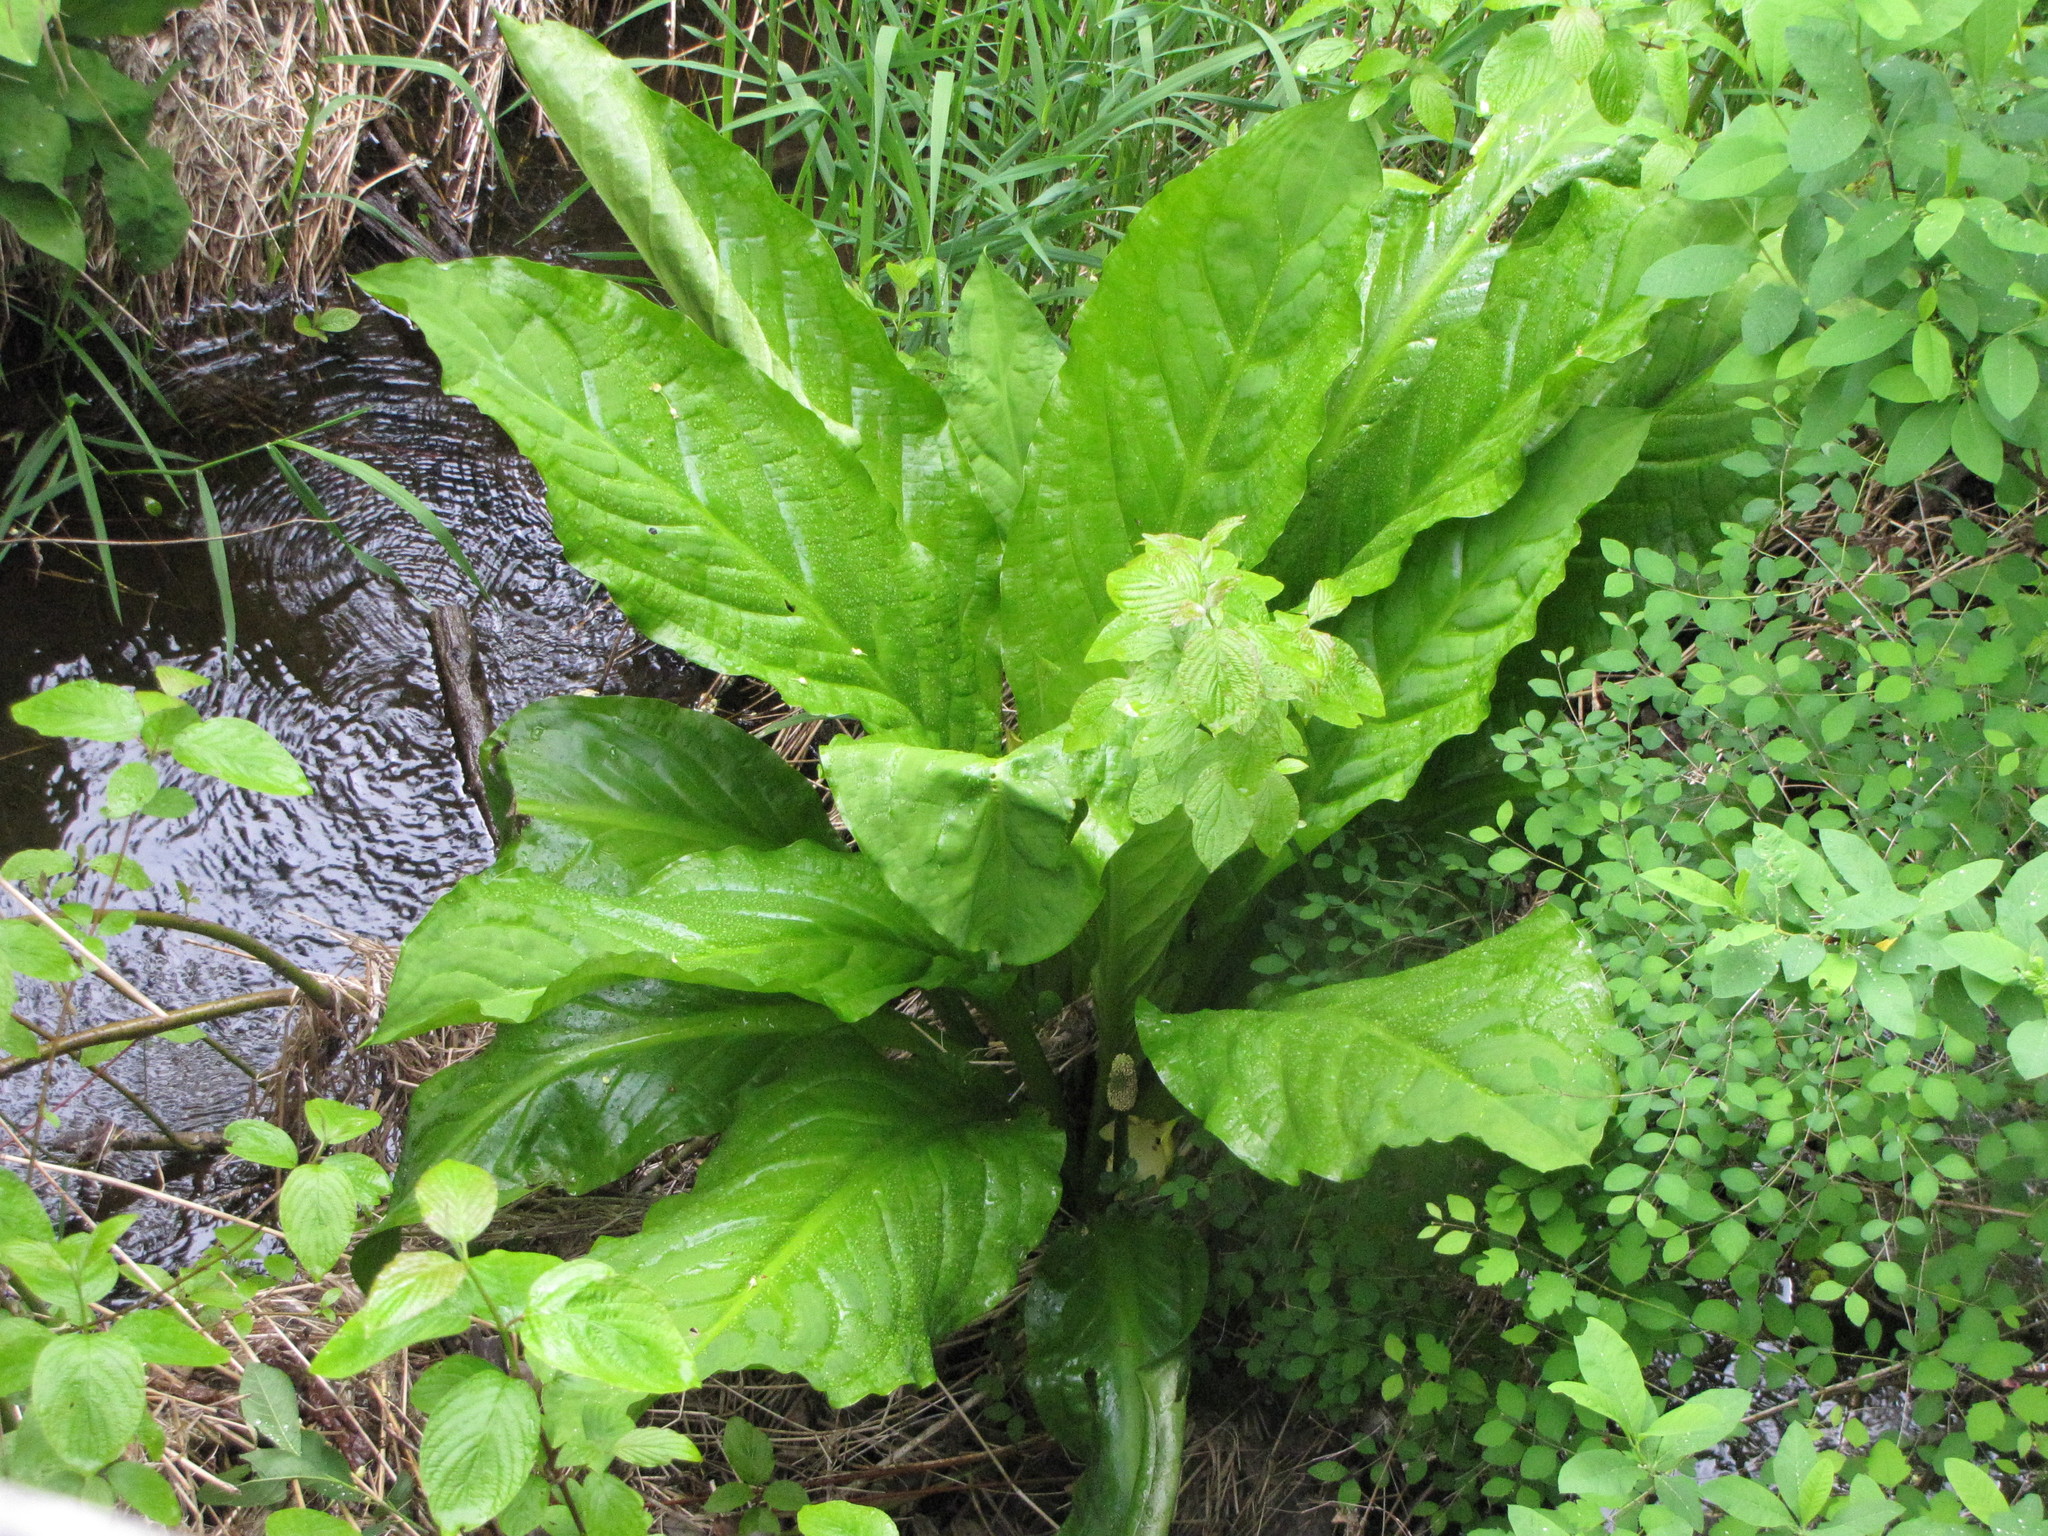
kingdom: Plantae
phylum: Tracheophyta
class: Liliopsida
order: Alismatales
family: Araceae
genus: Lysichiton
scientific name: Lysichiton americanus
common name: American skunk cabbage
